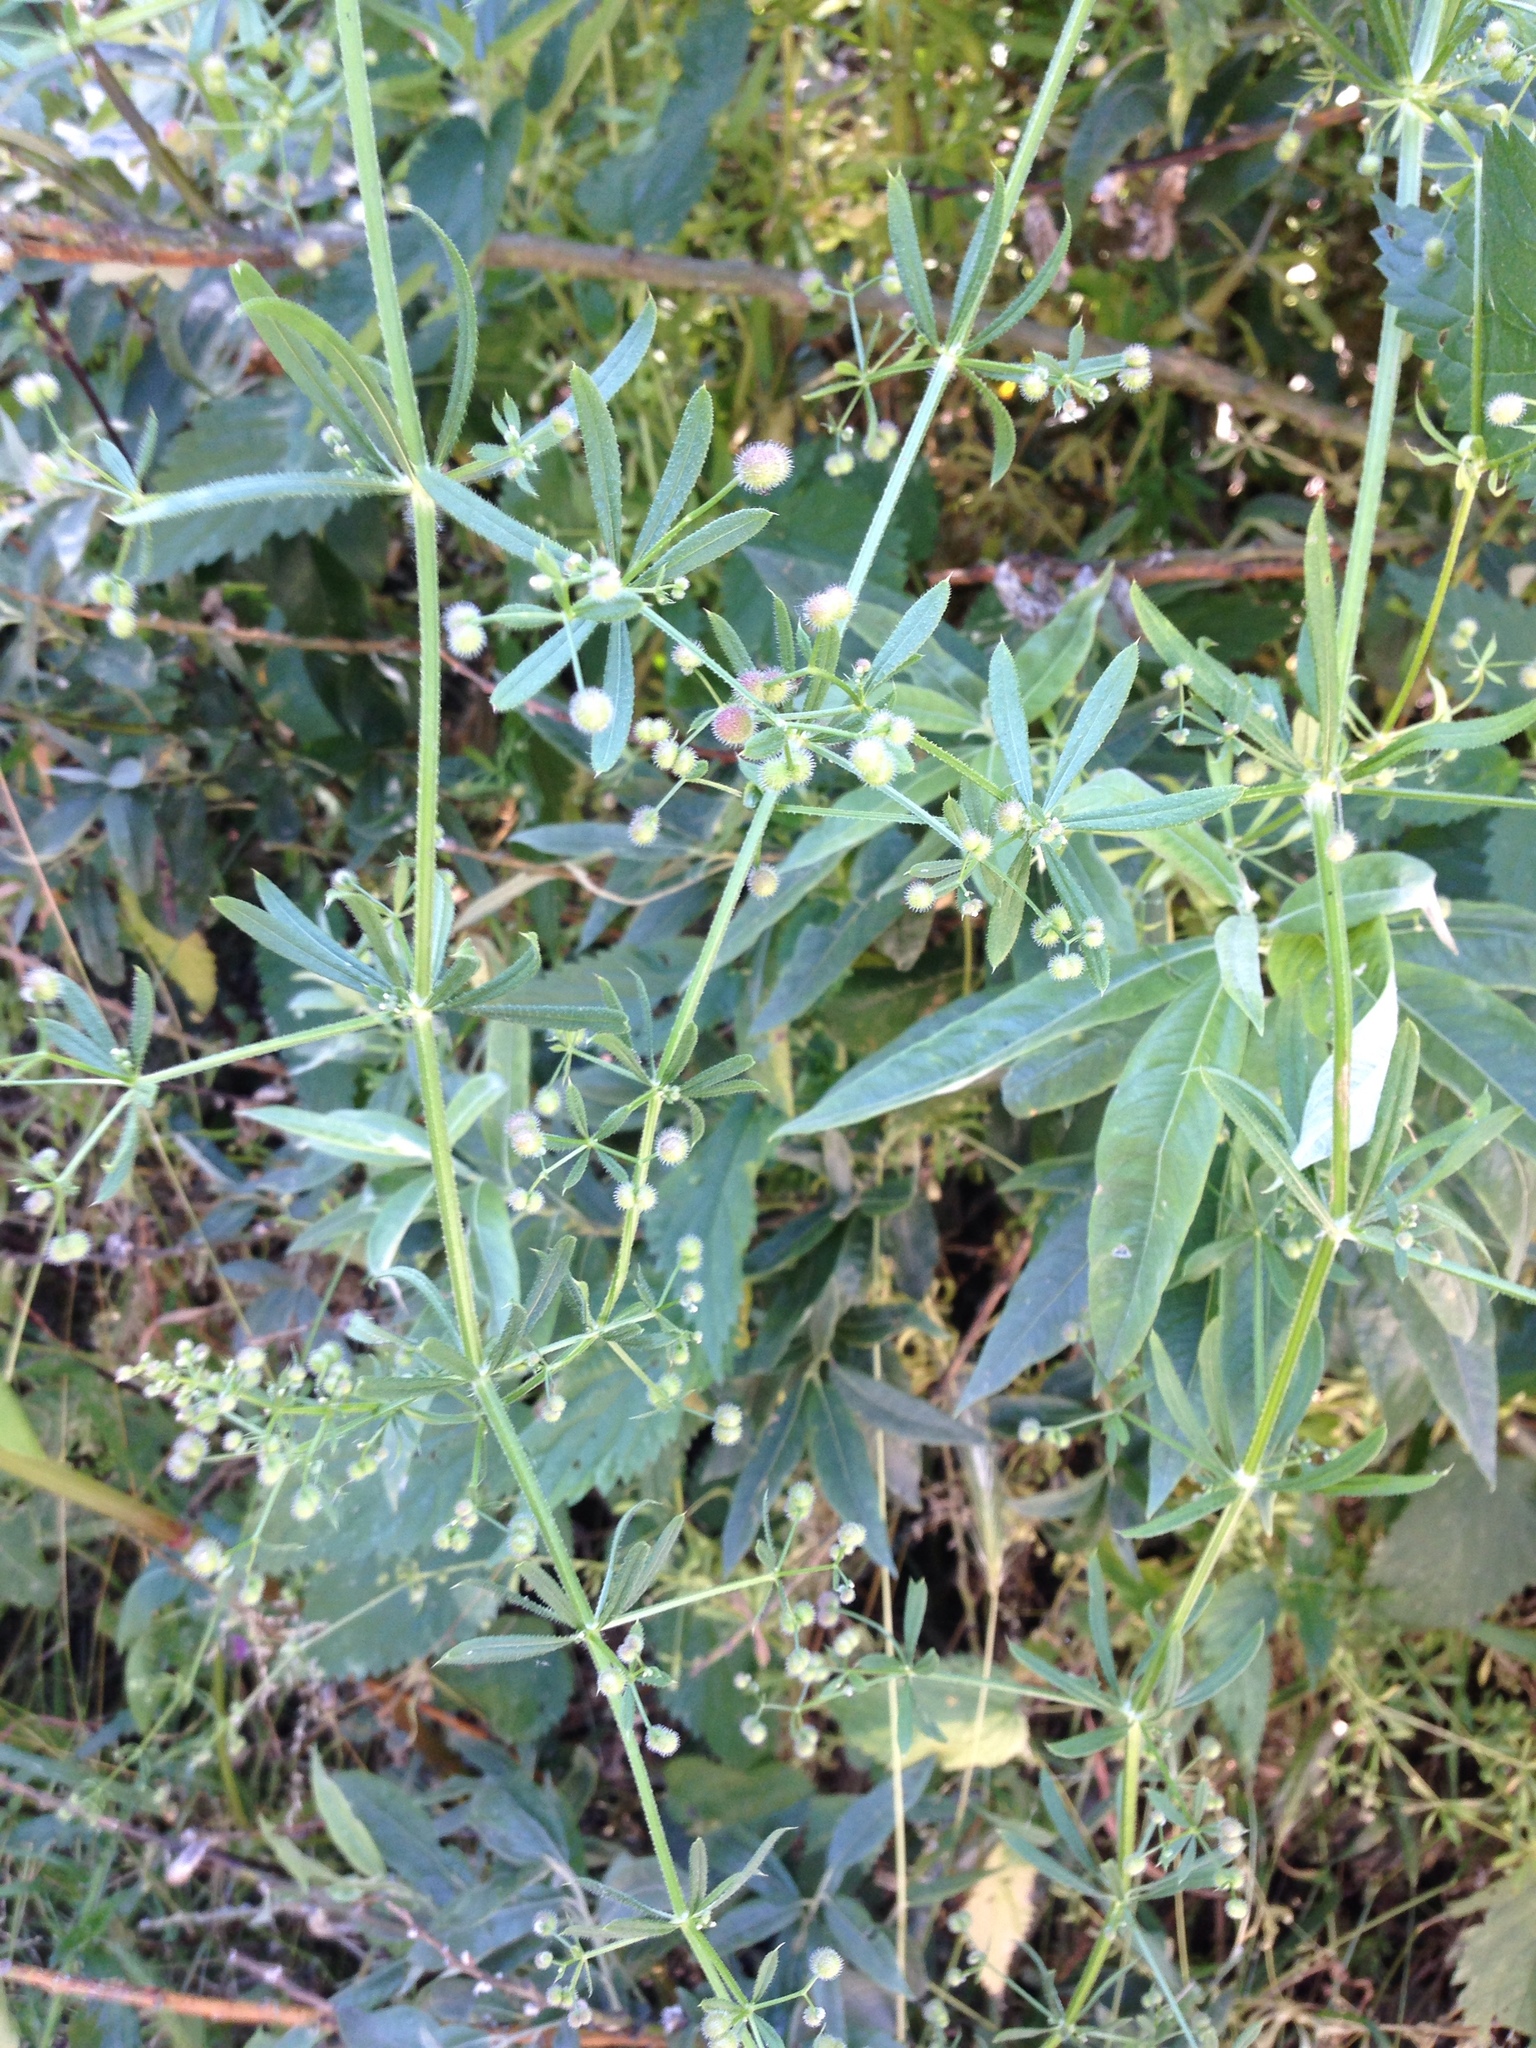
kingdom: Plantae
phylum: Tracheophyta
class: Magnoliopsida
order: Gentianales
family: Rubiaceae
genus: Galium
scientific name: Galium aparine
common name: Cleavers
